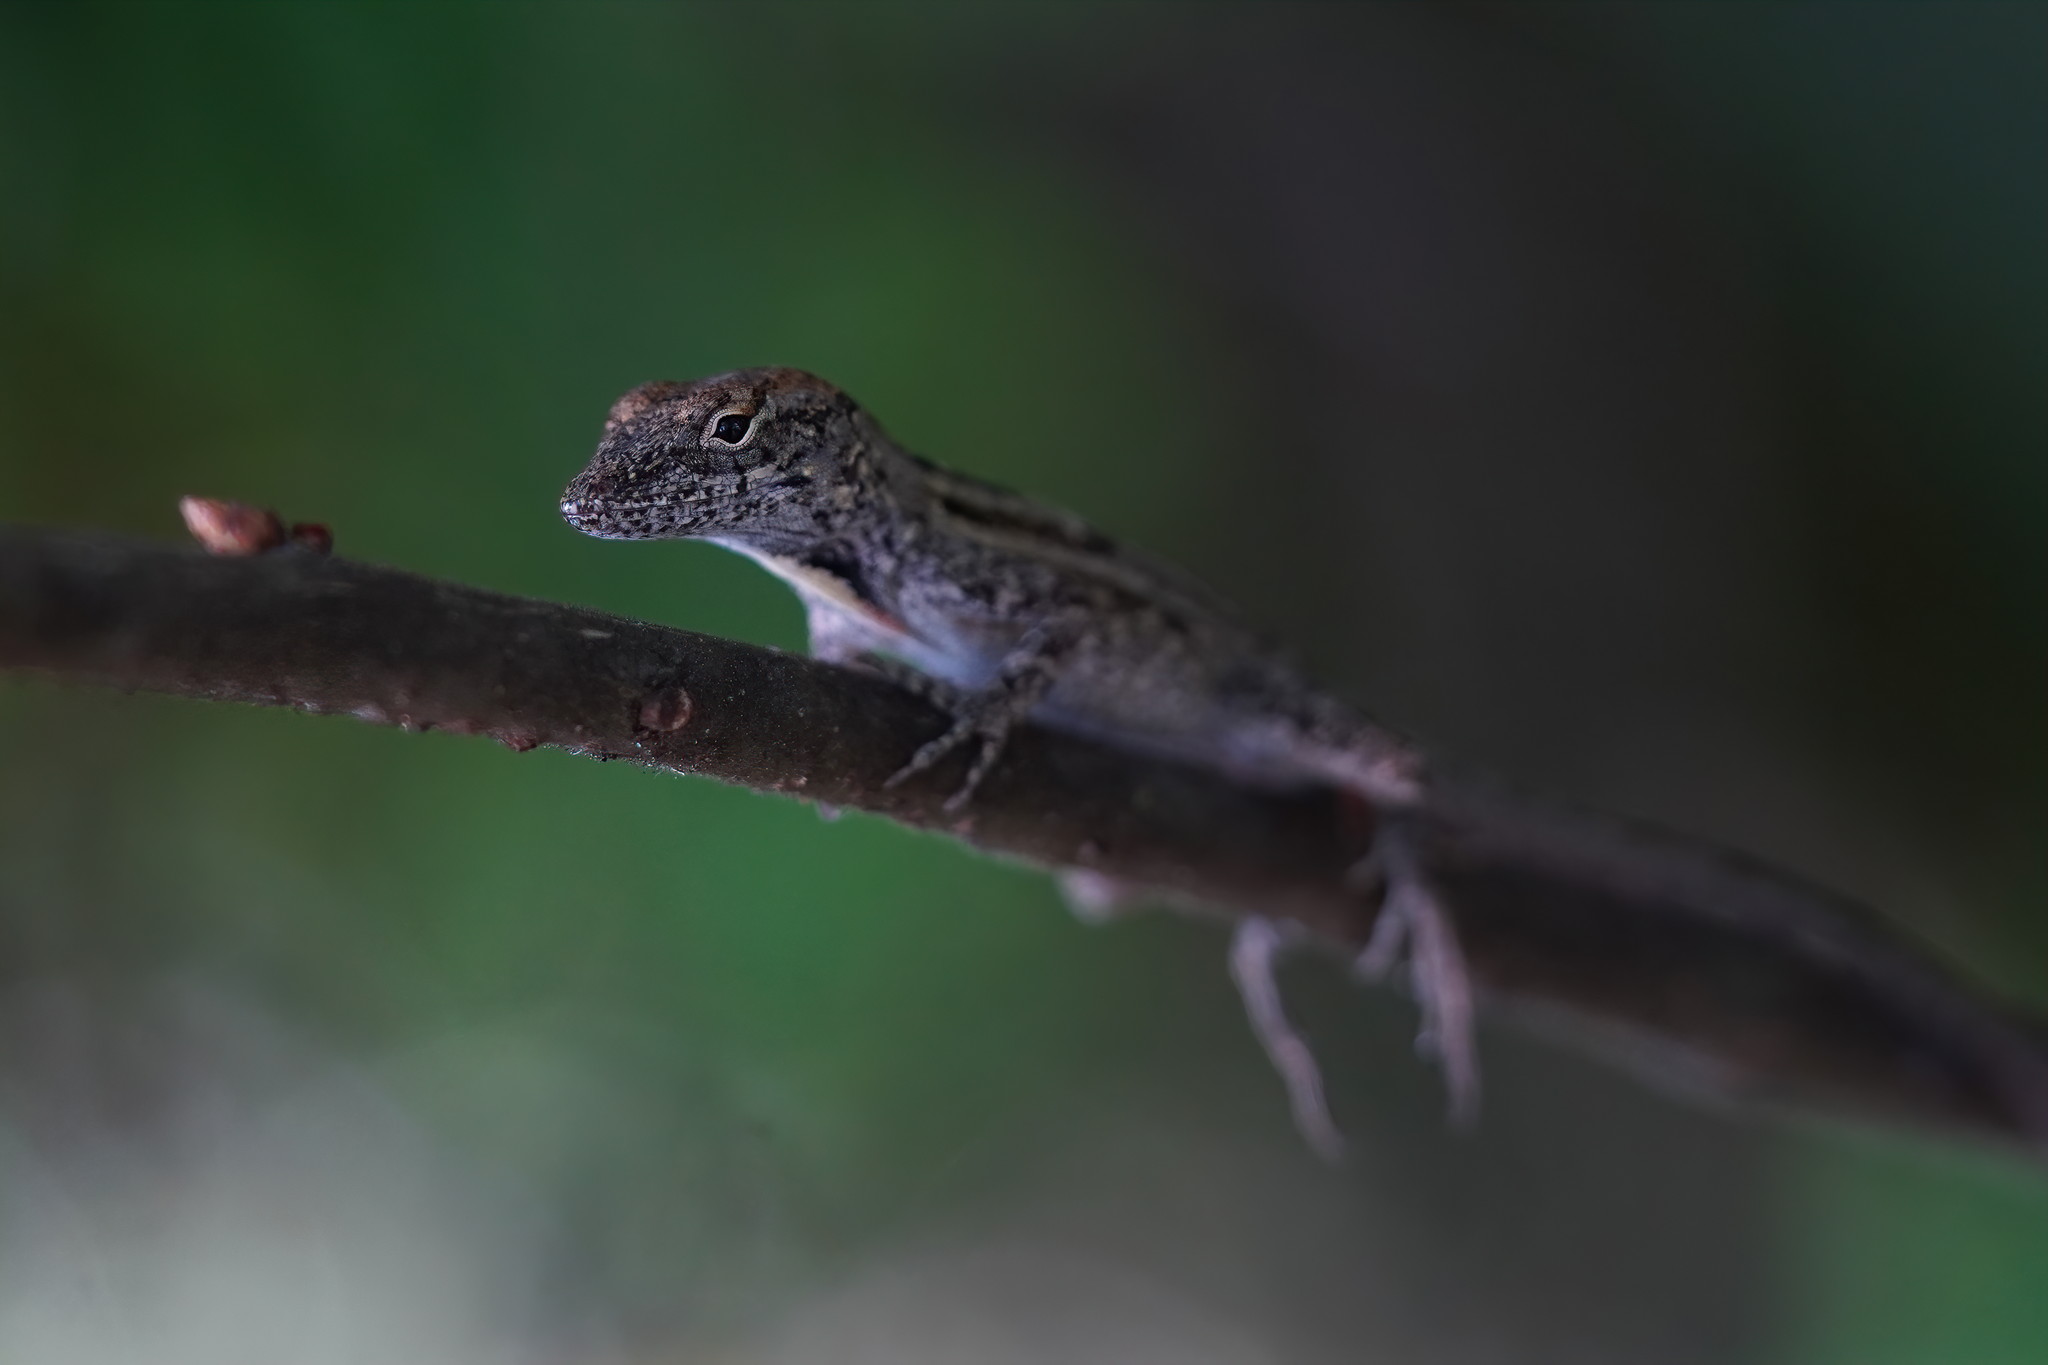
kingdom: Animalia
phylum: Chordata
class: Squamata
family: Dactyloidae
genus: Anolis
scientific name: Anolis sagrei
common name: Brown anole
